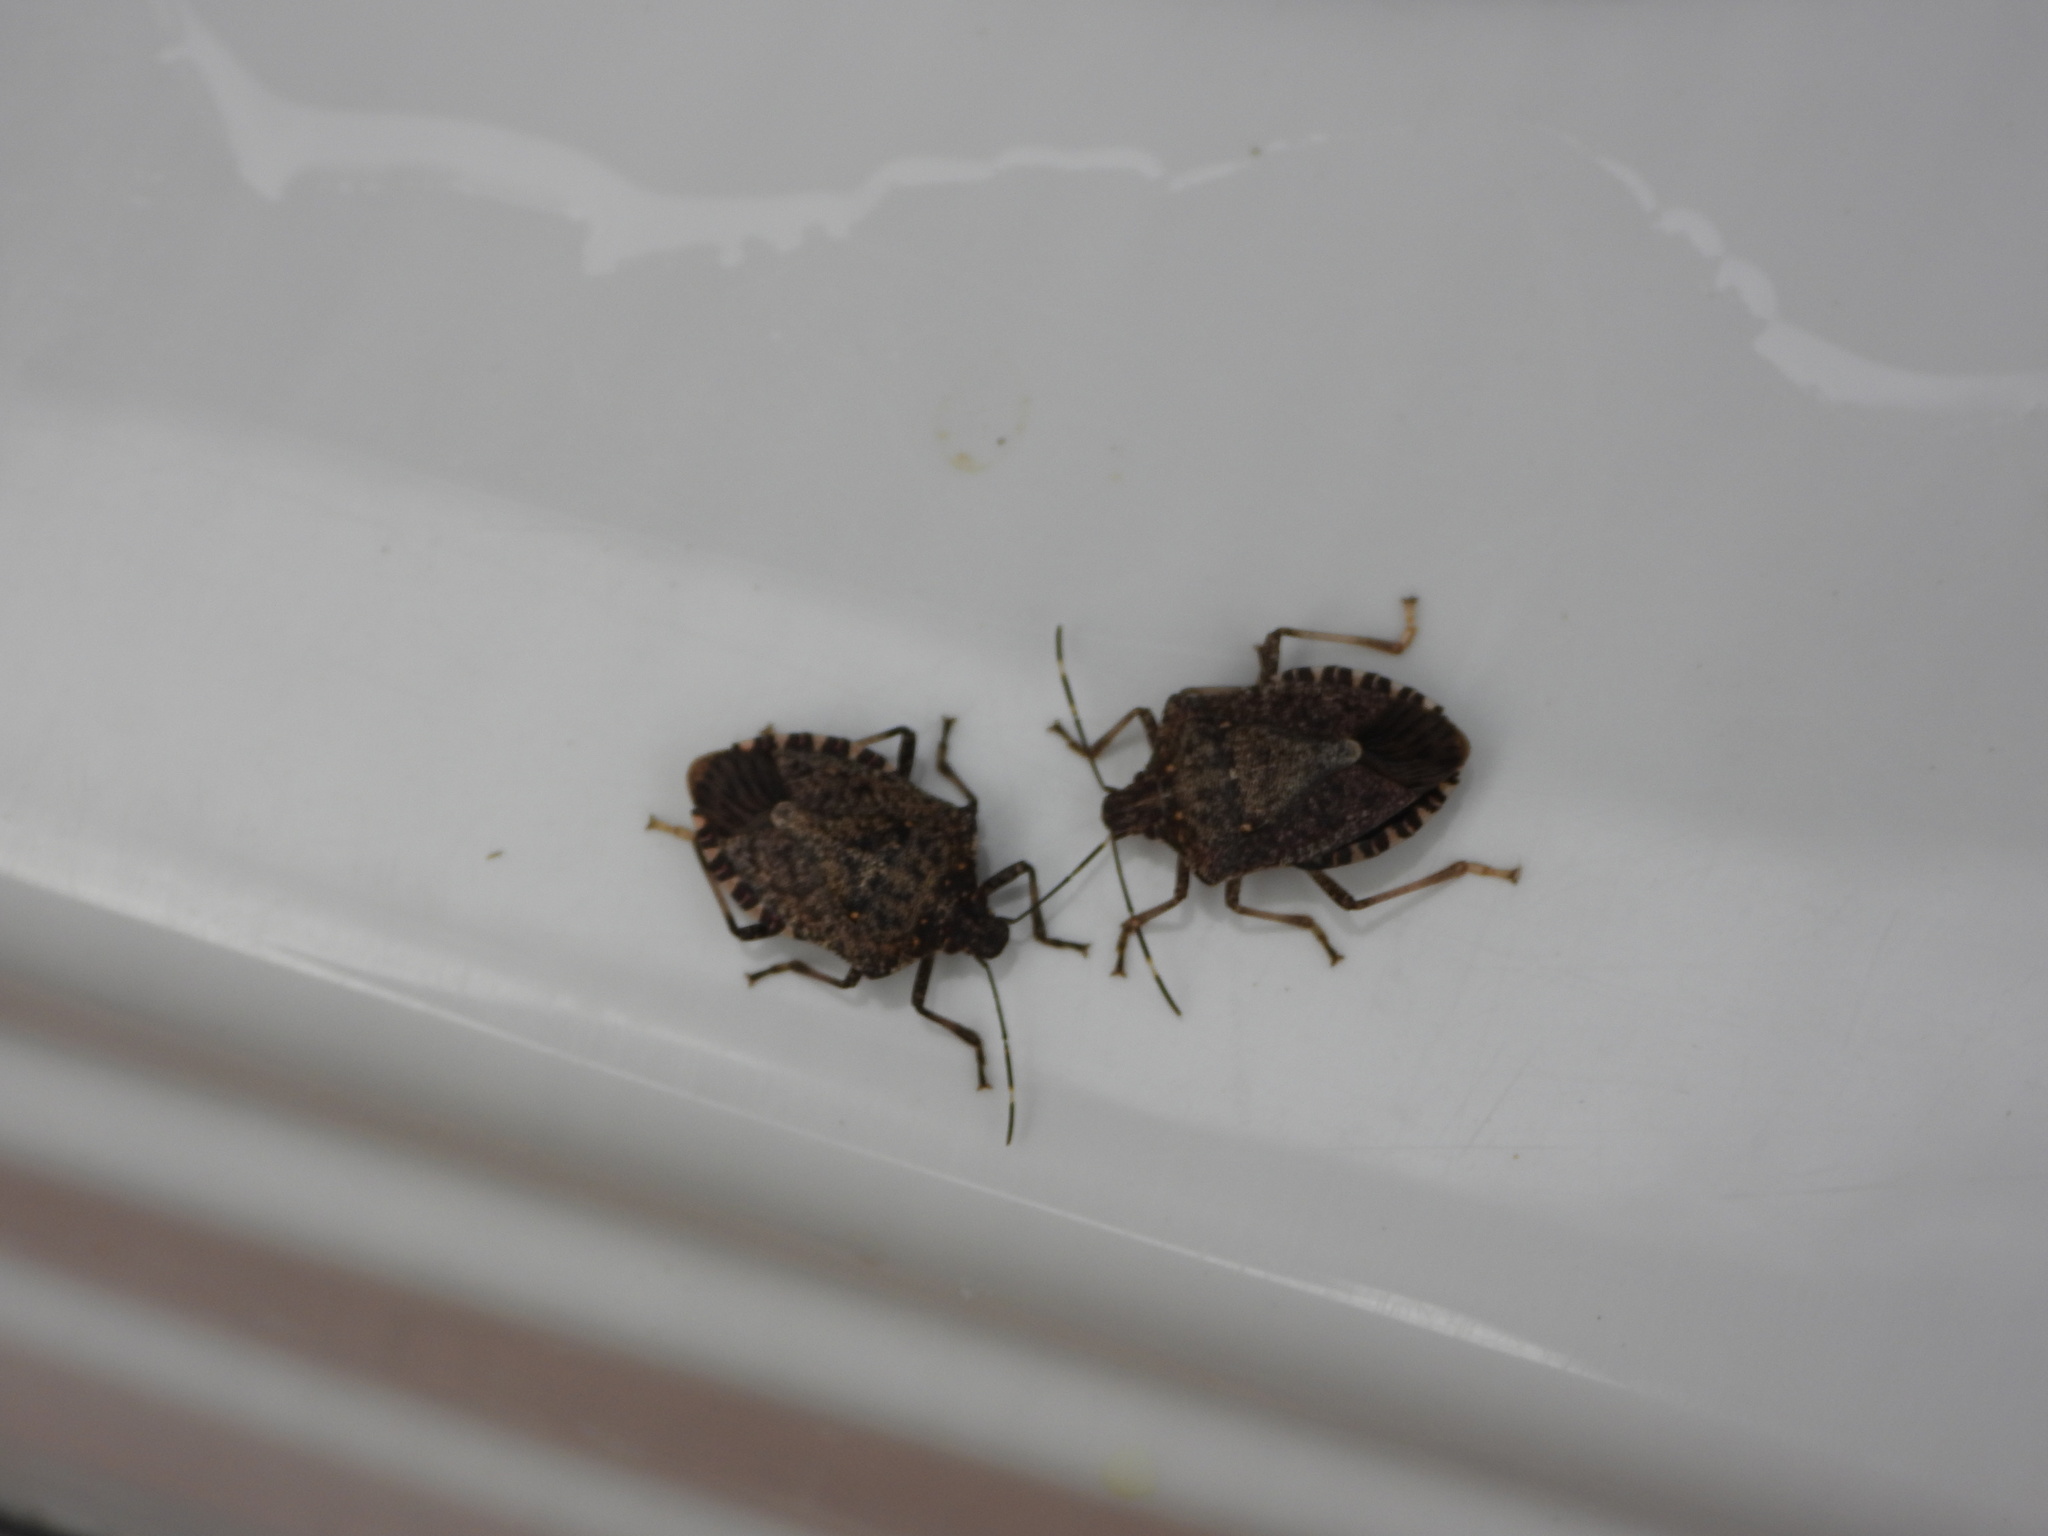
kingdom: Animalia
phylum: Arthropoda
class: Insecta
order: Hemiptera
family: Pentatomidae
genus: Halyomorpha
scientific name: Halyomorpha halys
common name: Brown marmorated stink bug
